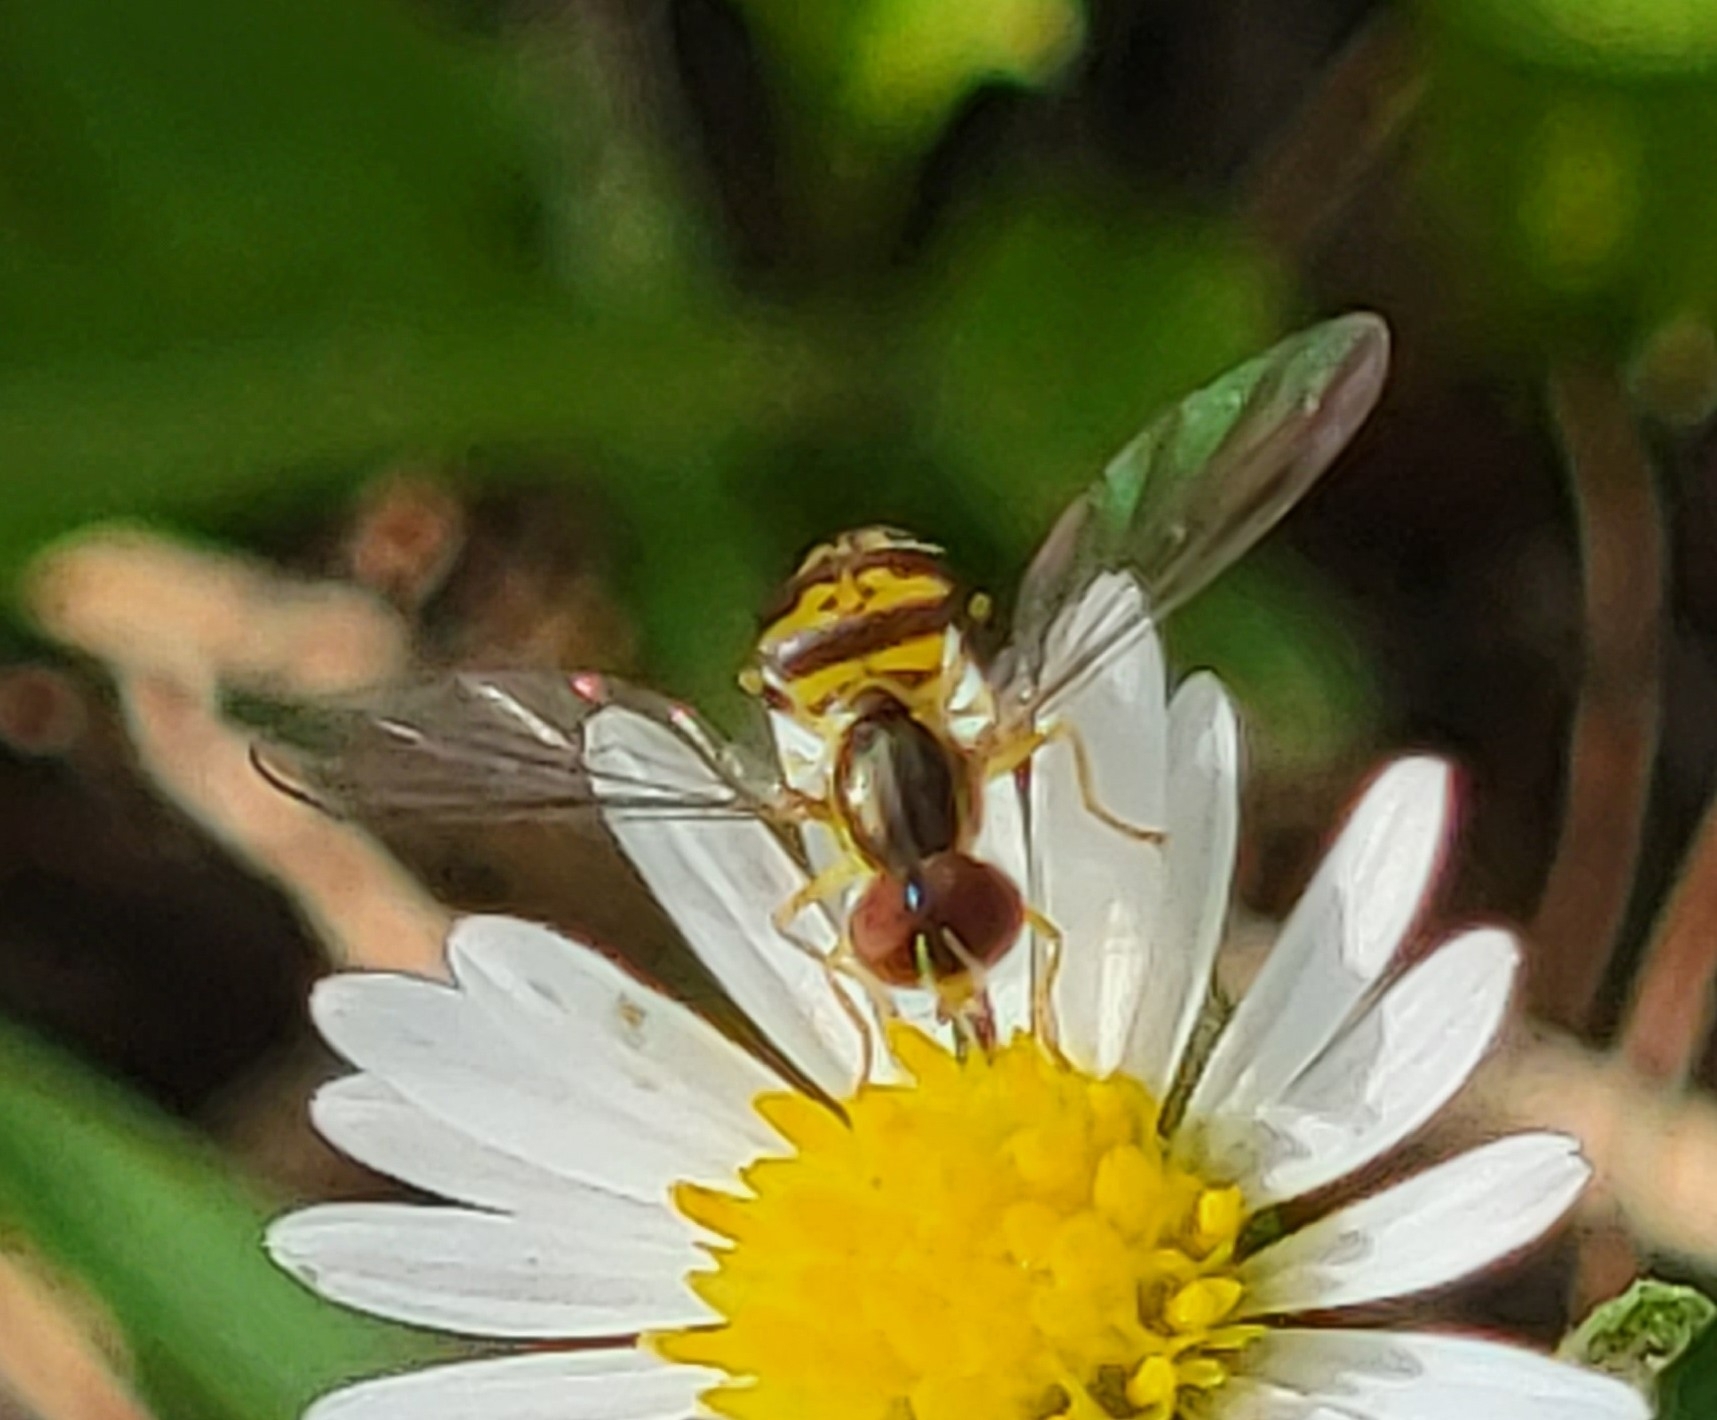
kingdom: Animalia
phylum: Arthropoda
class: Insecta
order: Diptera
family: Syrphidae
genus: Toxomerus
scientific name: Toxomerus geminatus
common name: Eastern calligrapher
